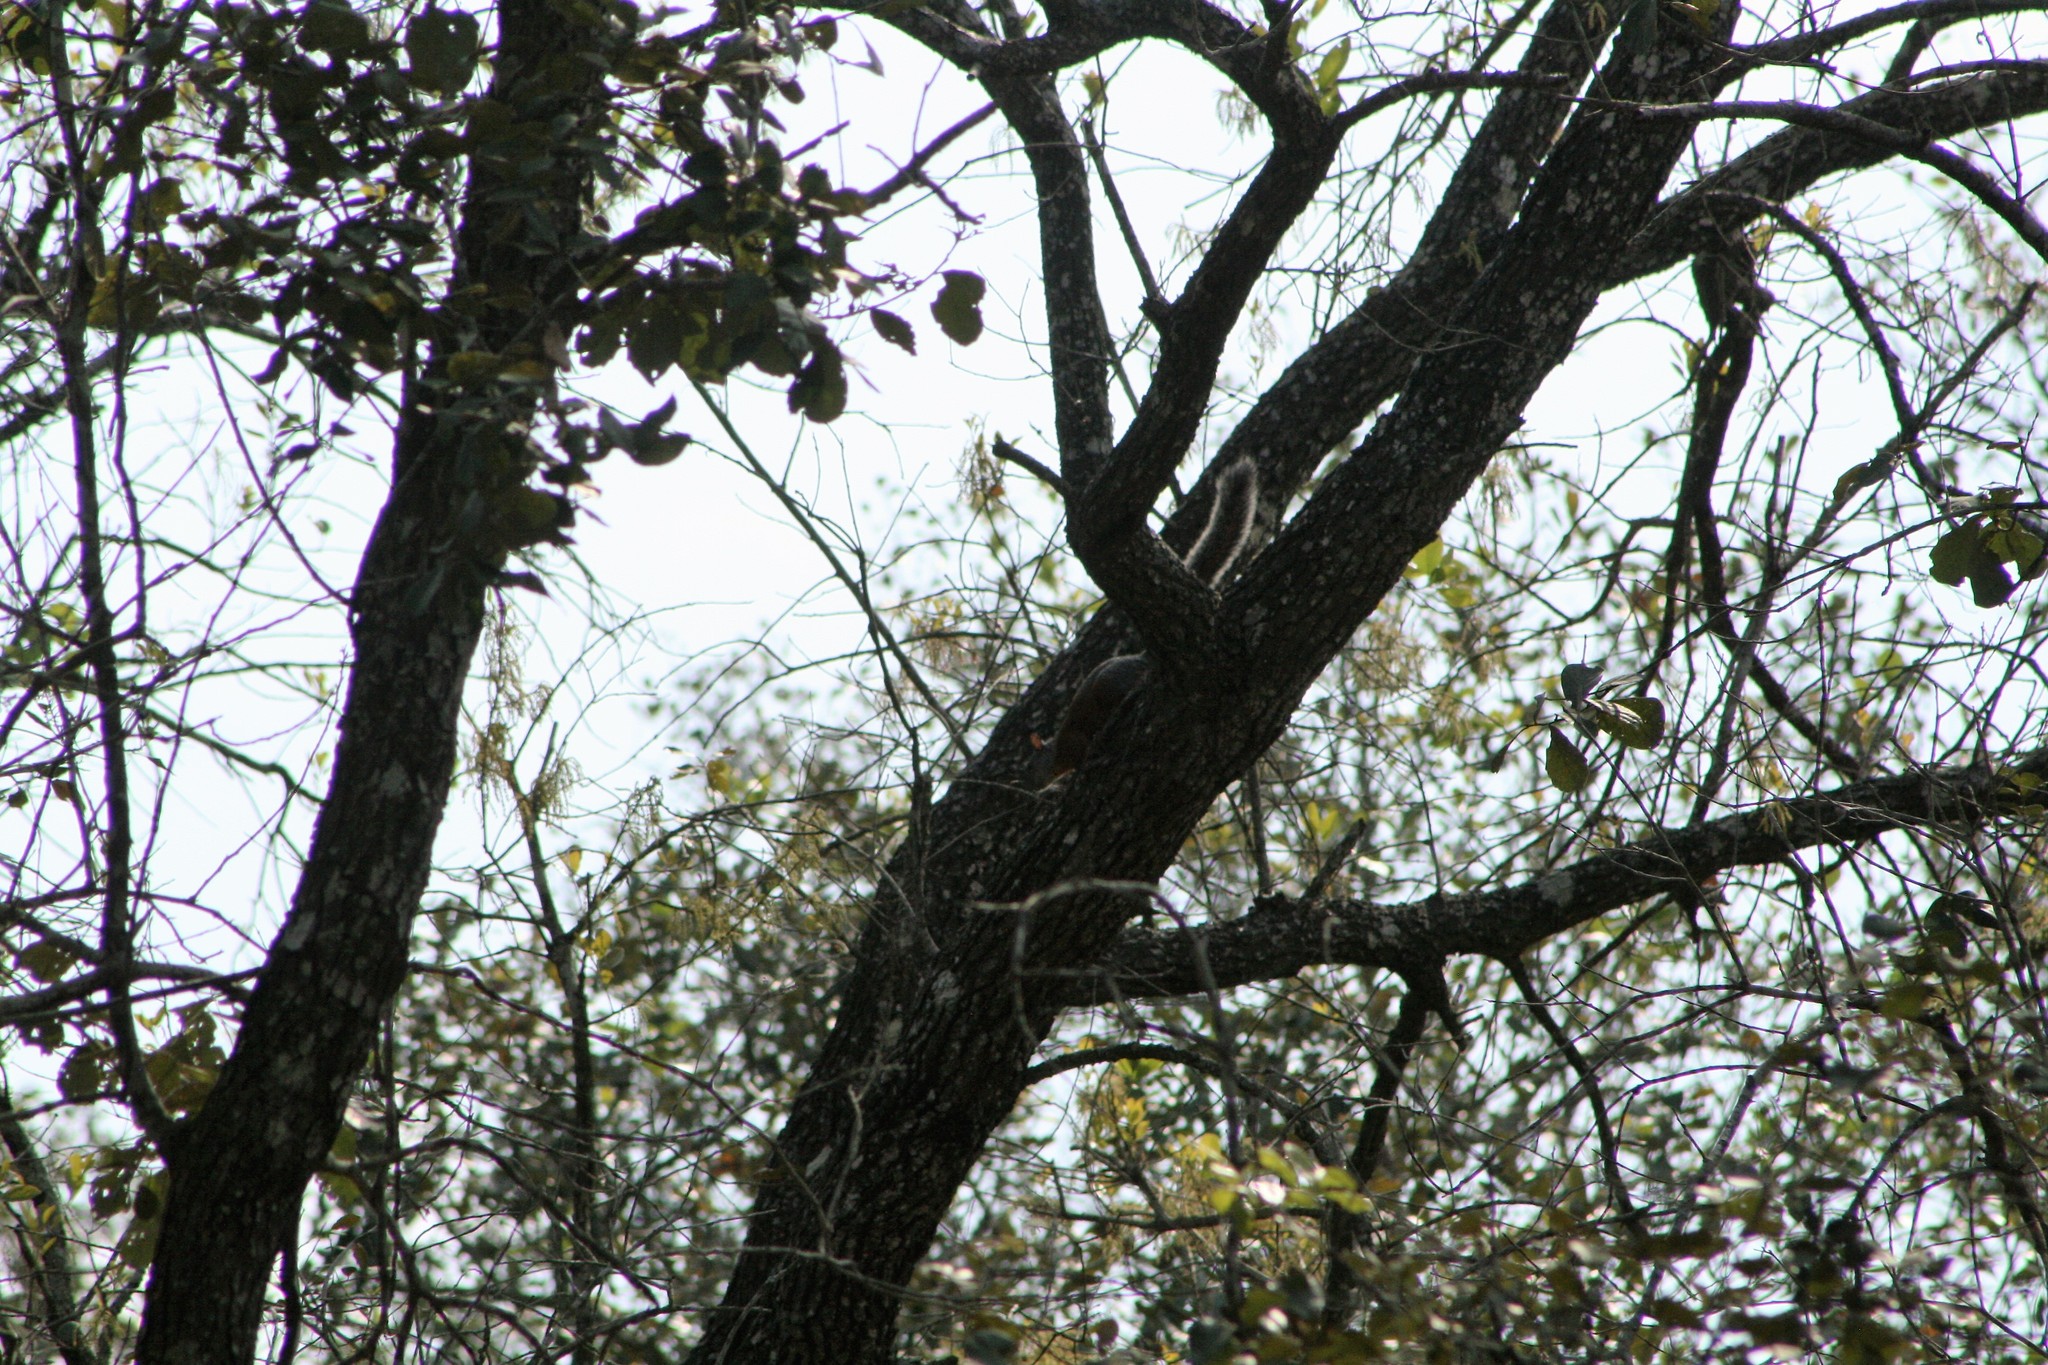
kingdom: Animalia
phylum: Chordata
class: Mammalia
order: Rodentia
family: Sciuridae
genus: Sciurus
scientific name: Sciurus aureogaster
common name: Red-bellied squirrel
